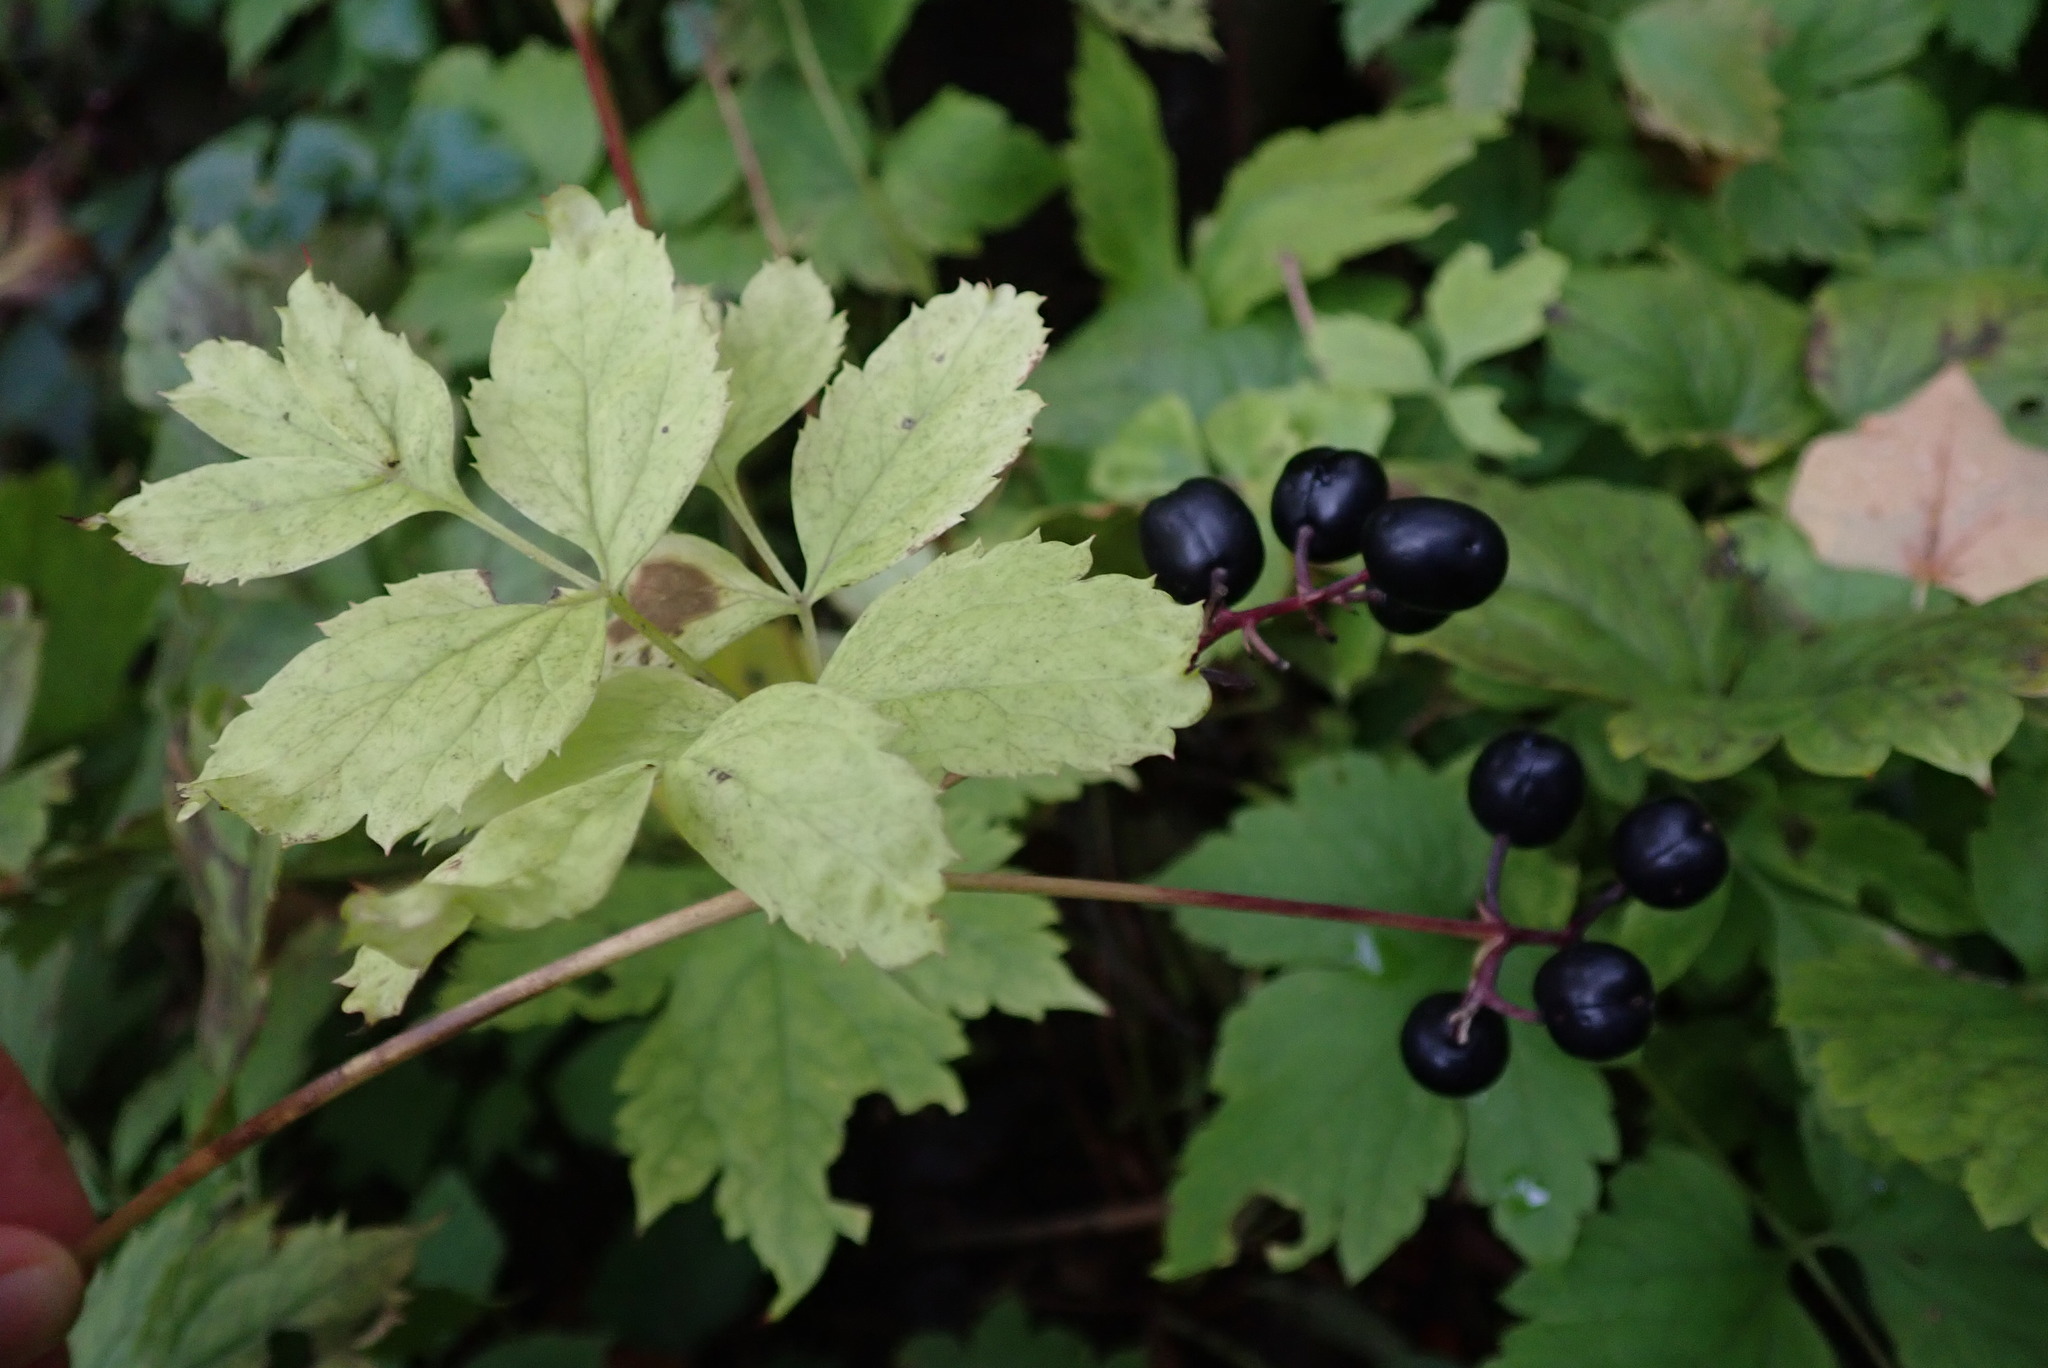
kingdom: Plantae
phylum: Tracheophyta
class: Magnoliopsida
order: Ranunculales
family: Ranunculaceae
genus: Actaea
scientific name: Actaea spicata
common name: Baneberry
